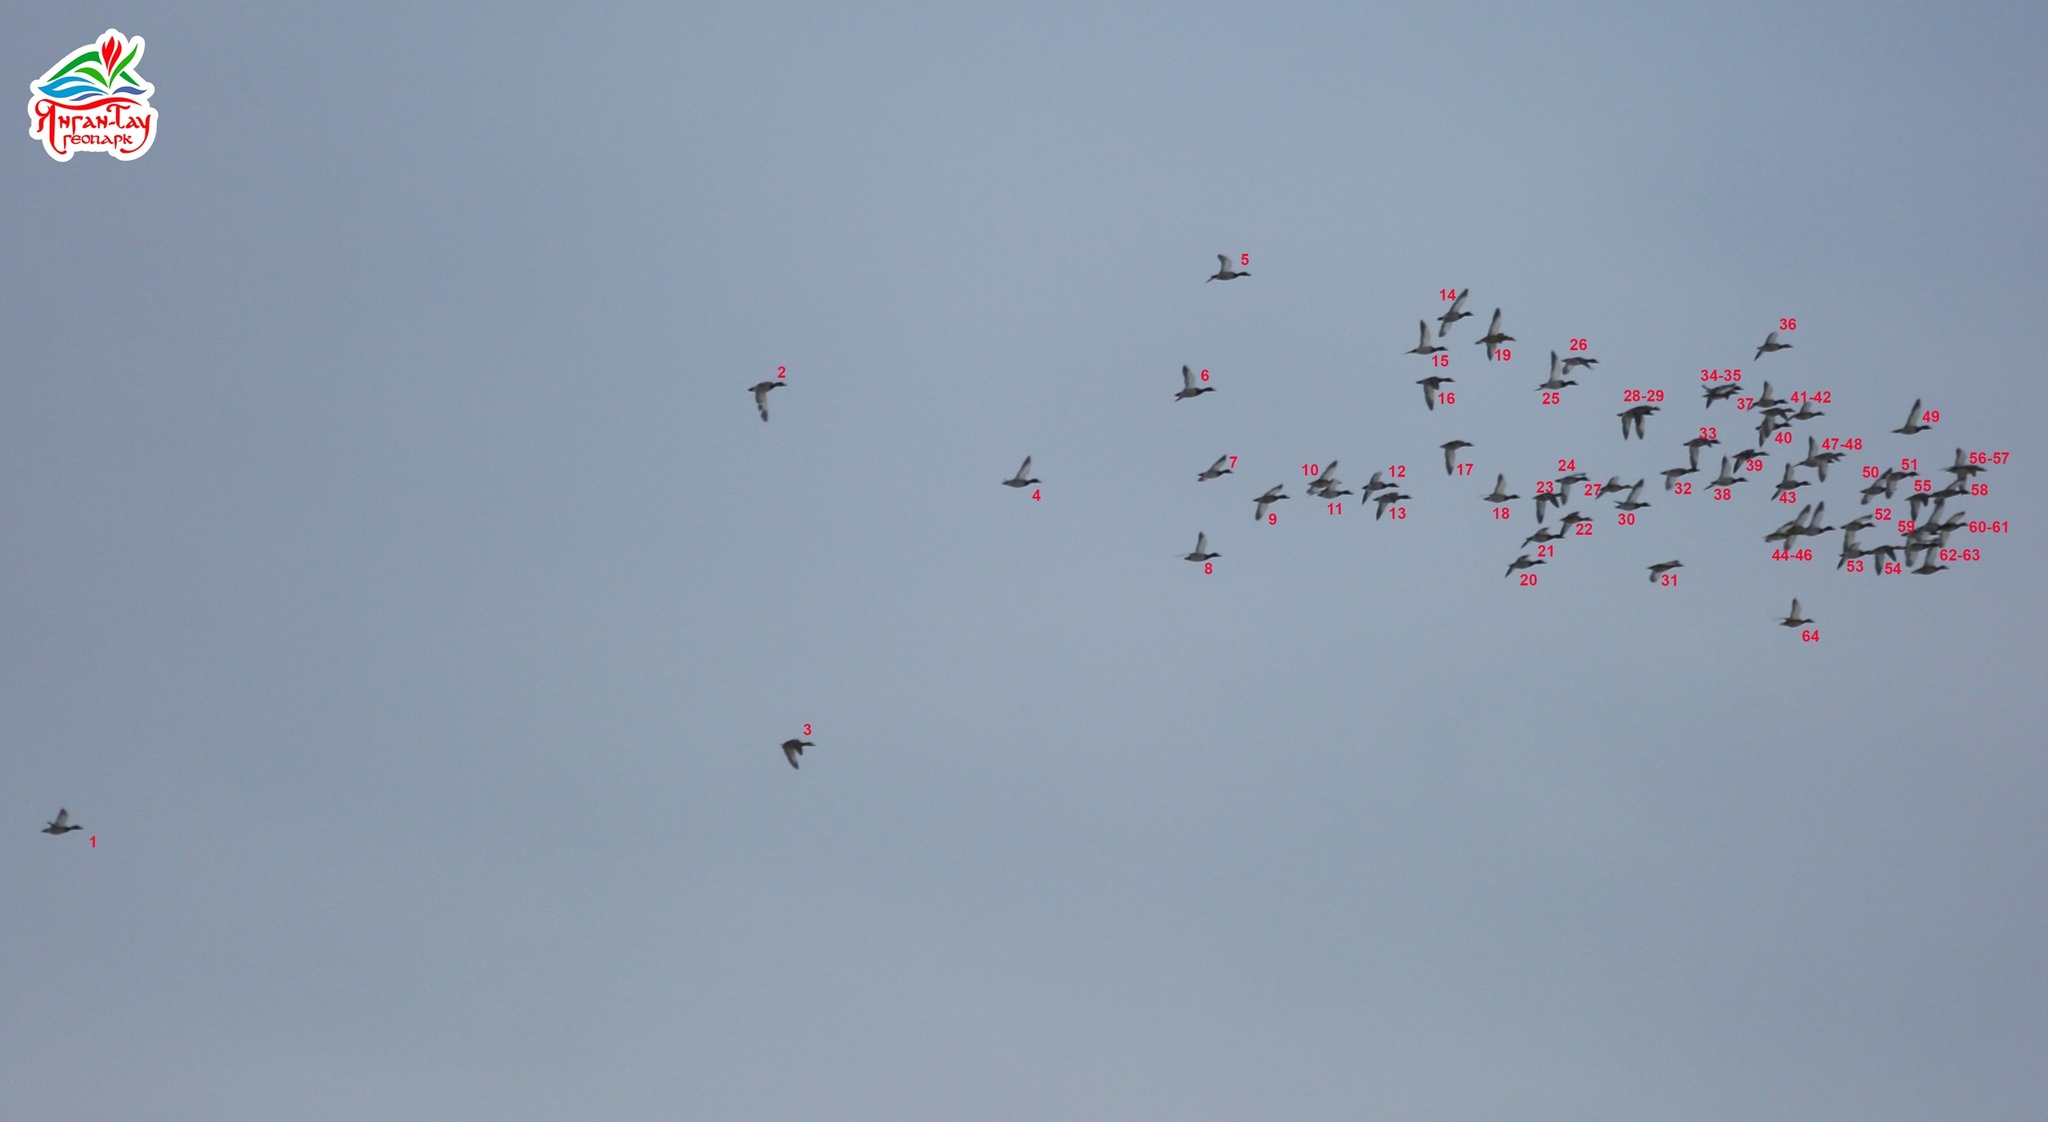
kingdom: Animalia
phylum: Chordata
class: Aves
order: Anseriformes
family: Anatidae
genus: Anas
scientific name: Anas platyrhynchos
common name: Mallard
